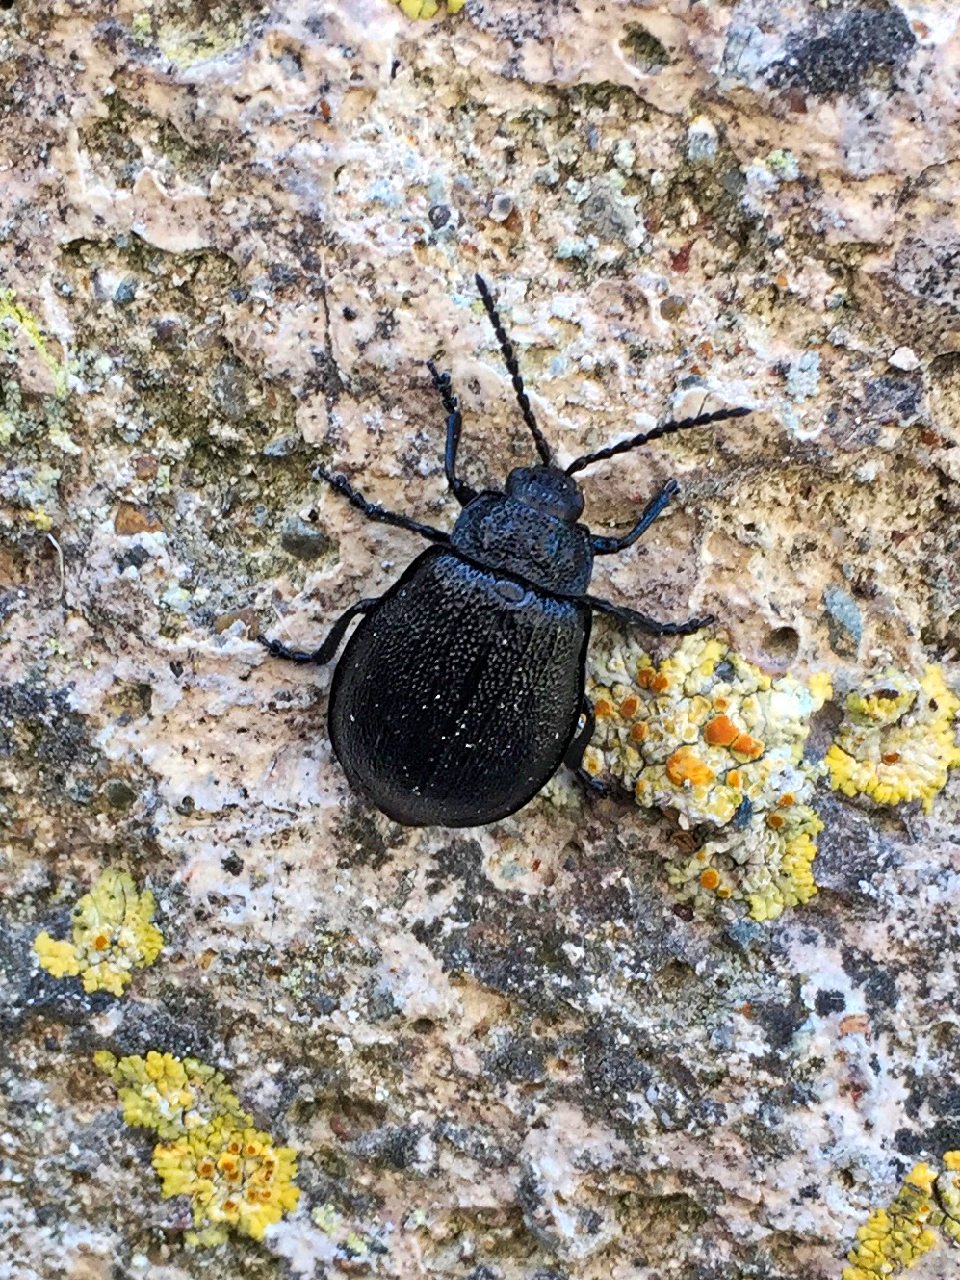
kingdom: Animalia
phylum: Arthropoda
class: Insecta
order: Coleoptera
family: Chrysomelidae
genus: Galeruca
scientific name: Galeruca tanaceti
